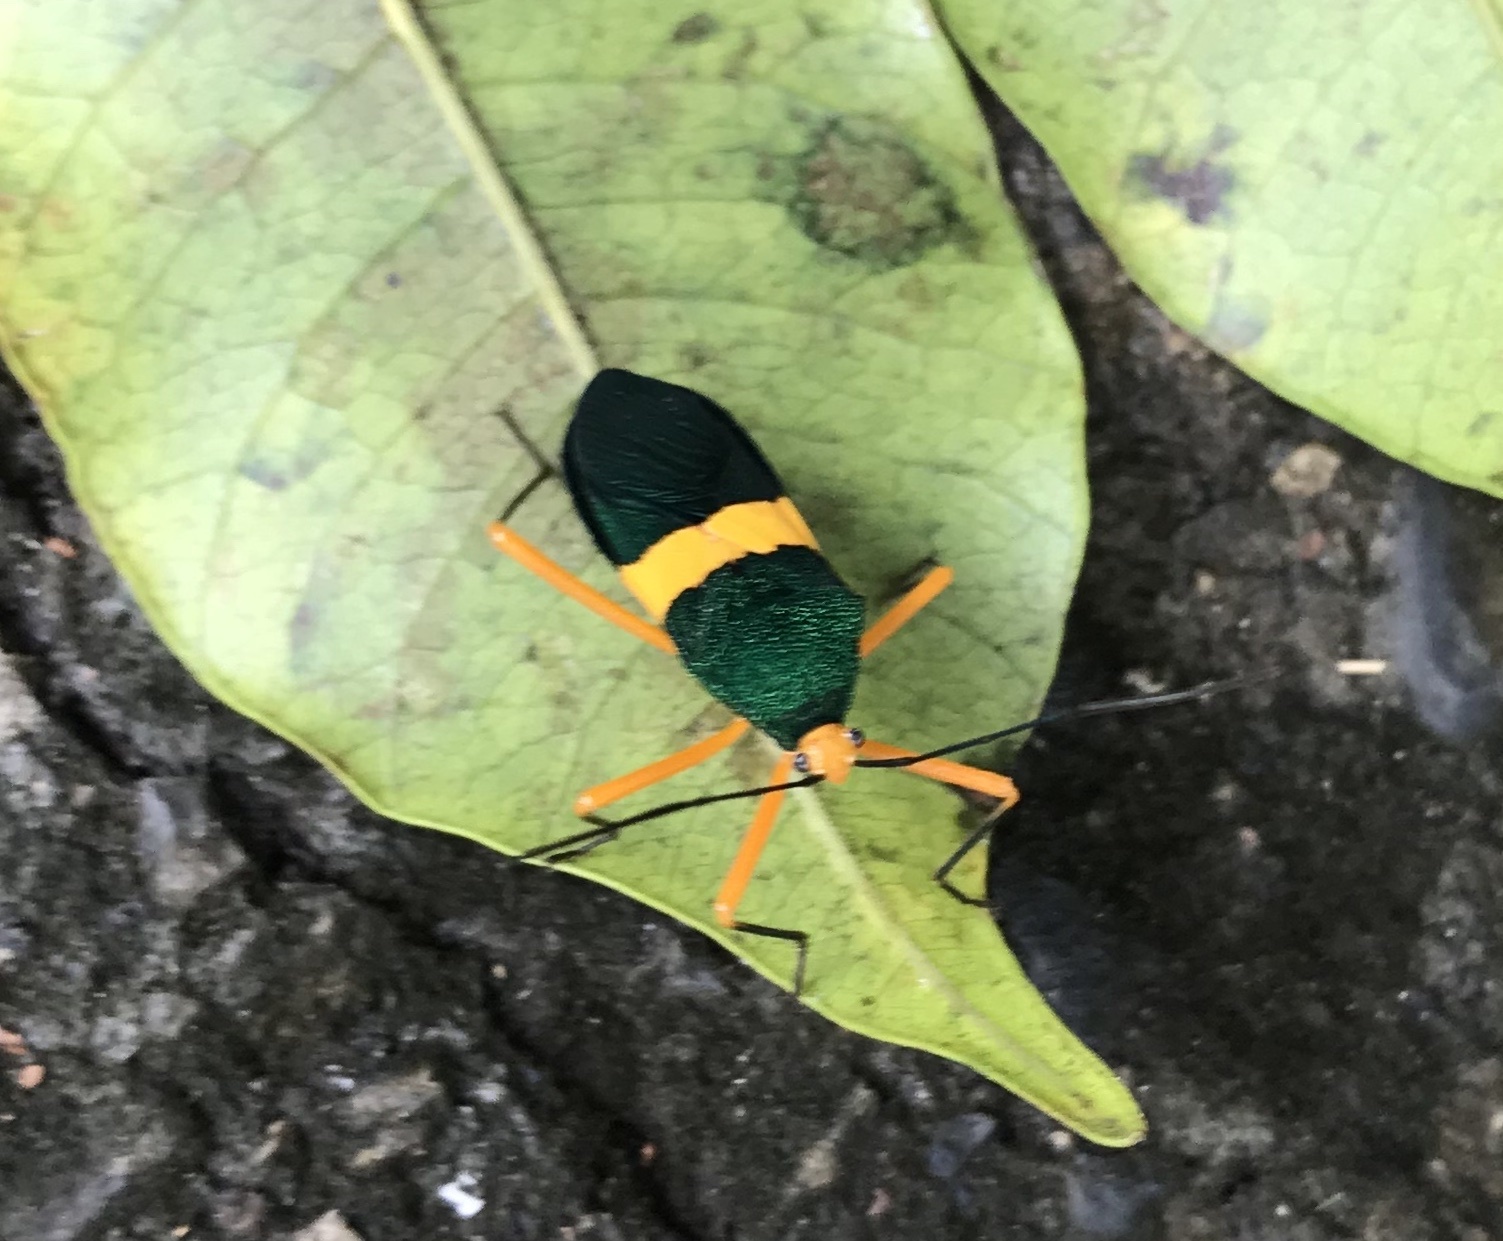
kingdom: Animalia
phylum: Arthropoda
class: Insecta
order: Hemiptera
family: Coreidae
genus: Paryphes
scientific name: Paryphes flavocinctus
